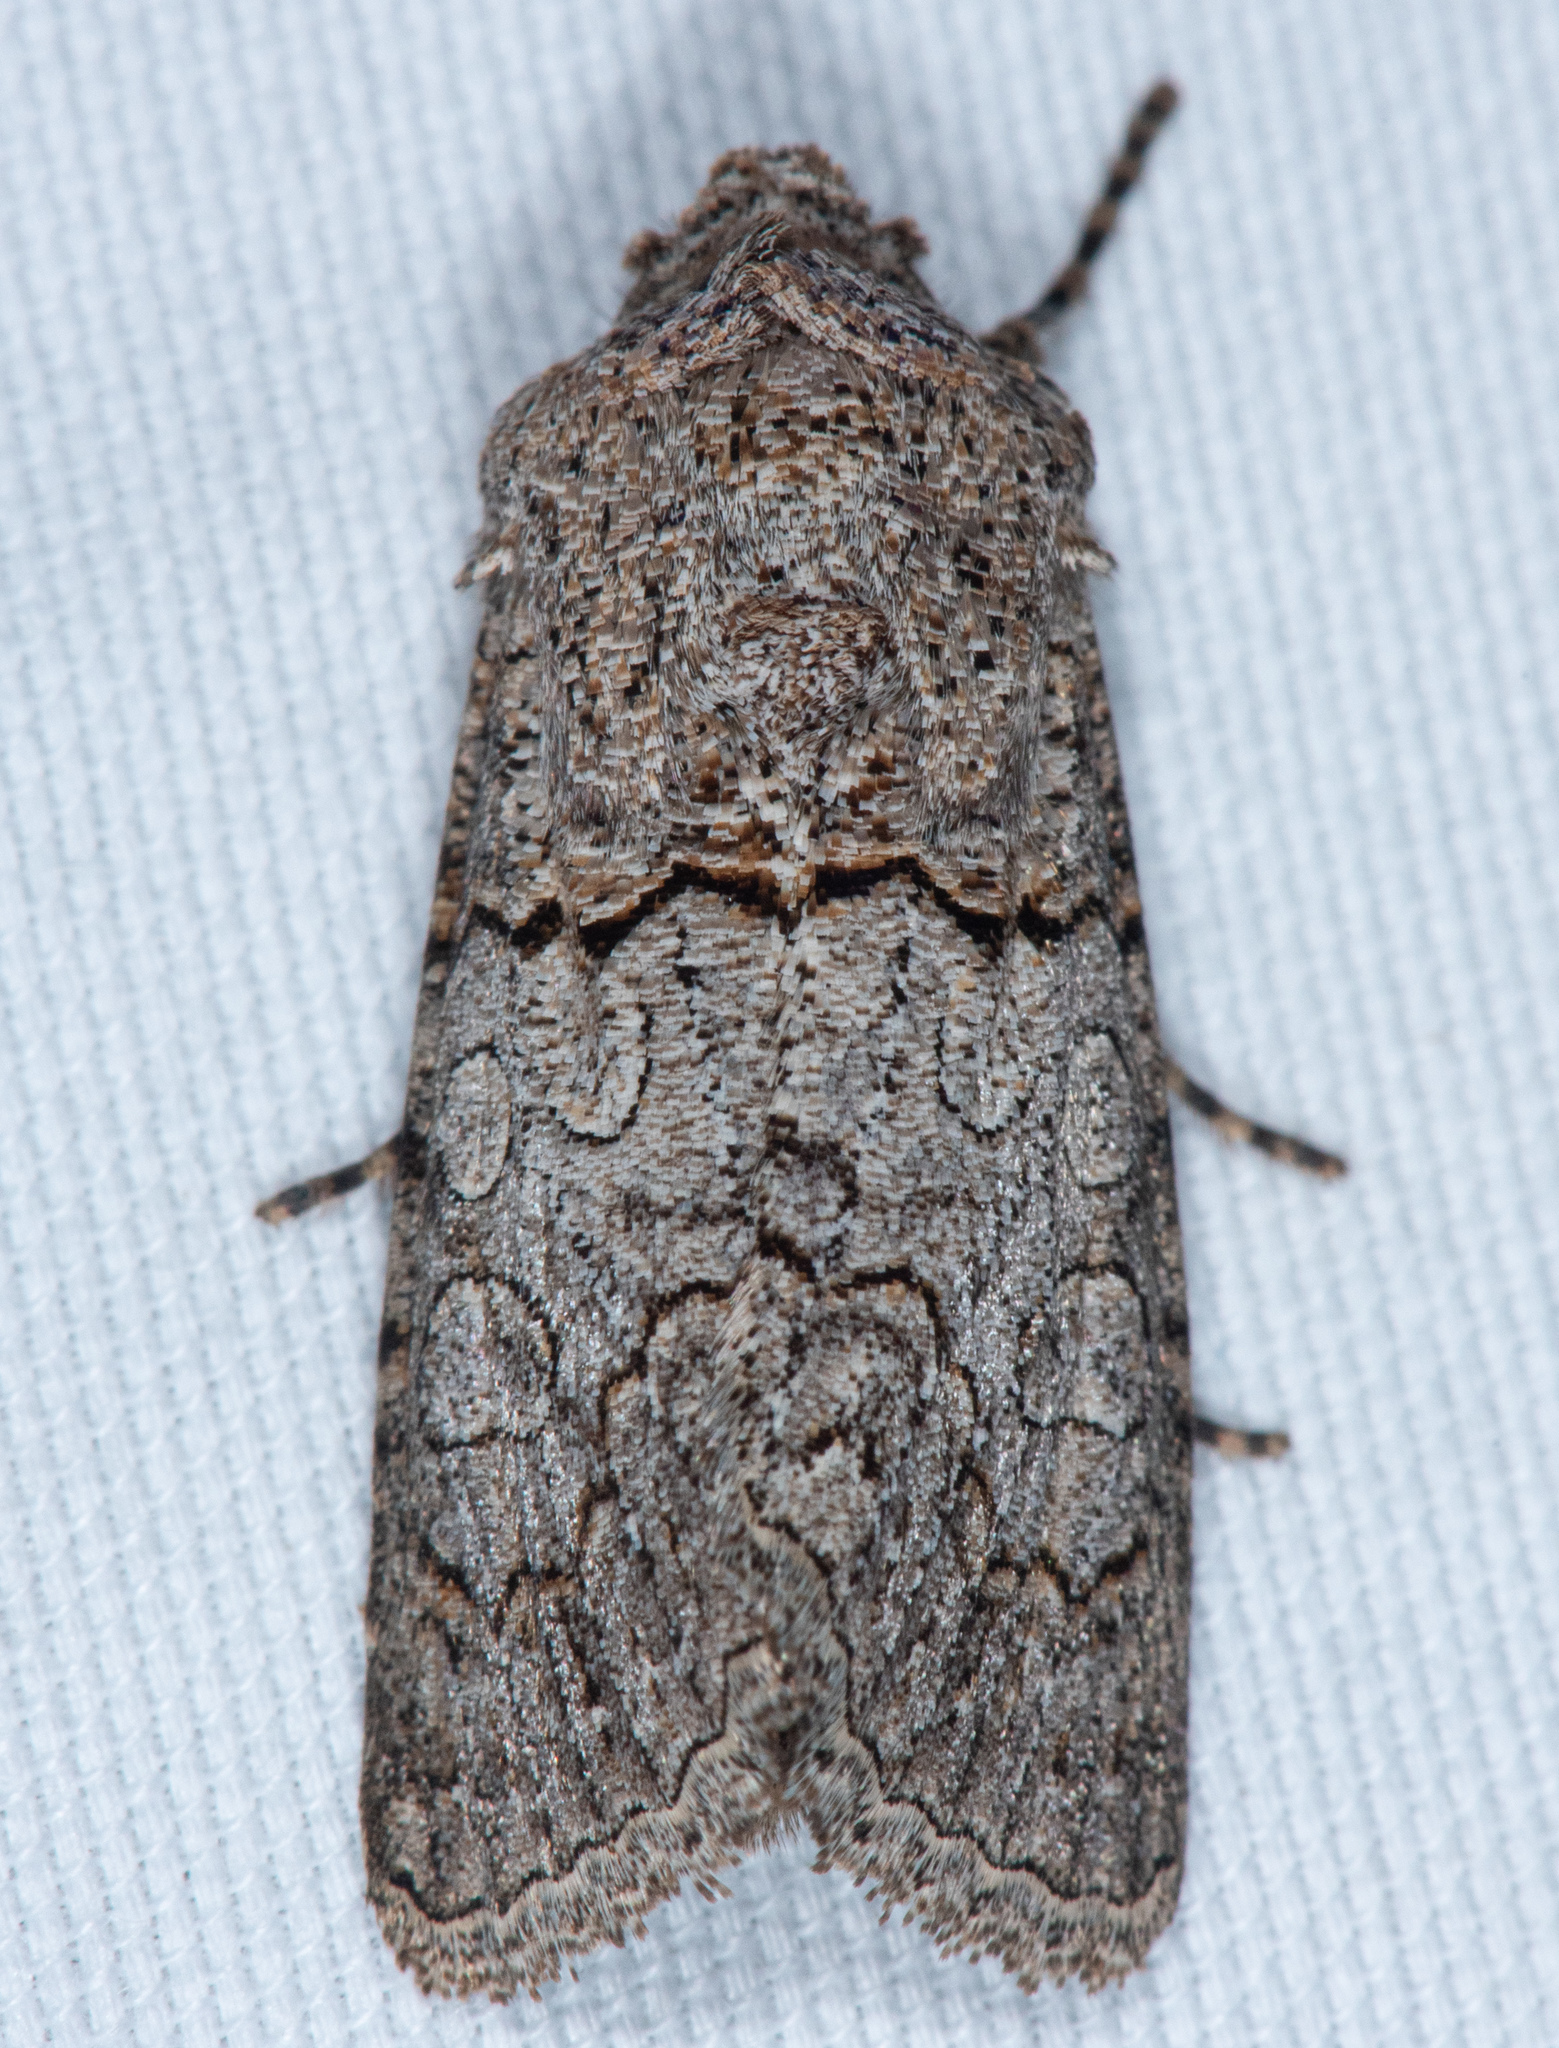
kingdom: Animalia
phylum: Arthropoda
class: Insecta
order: Lepidoptera
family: Noctuidae
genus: Sympistis
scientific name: Sympistis perscripta
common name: Scribbled sallow
